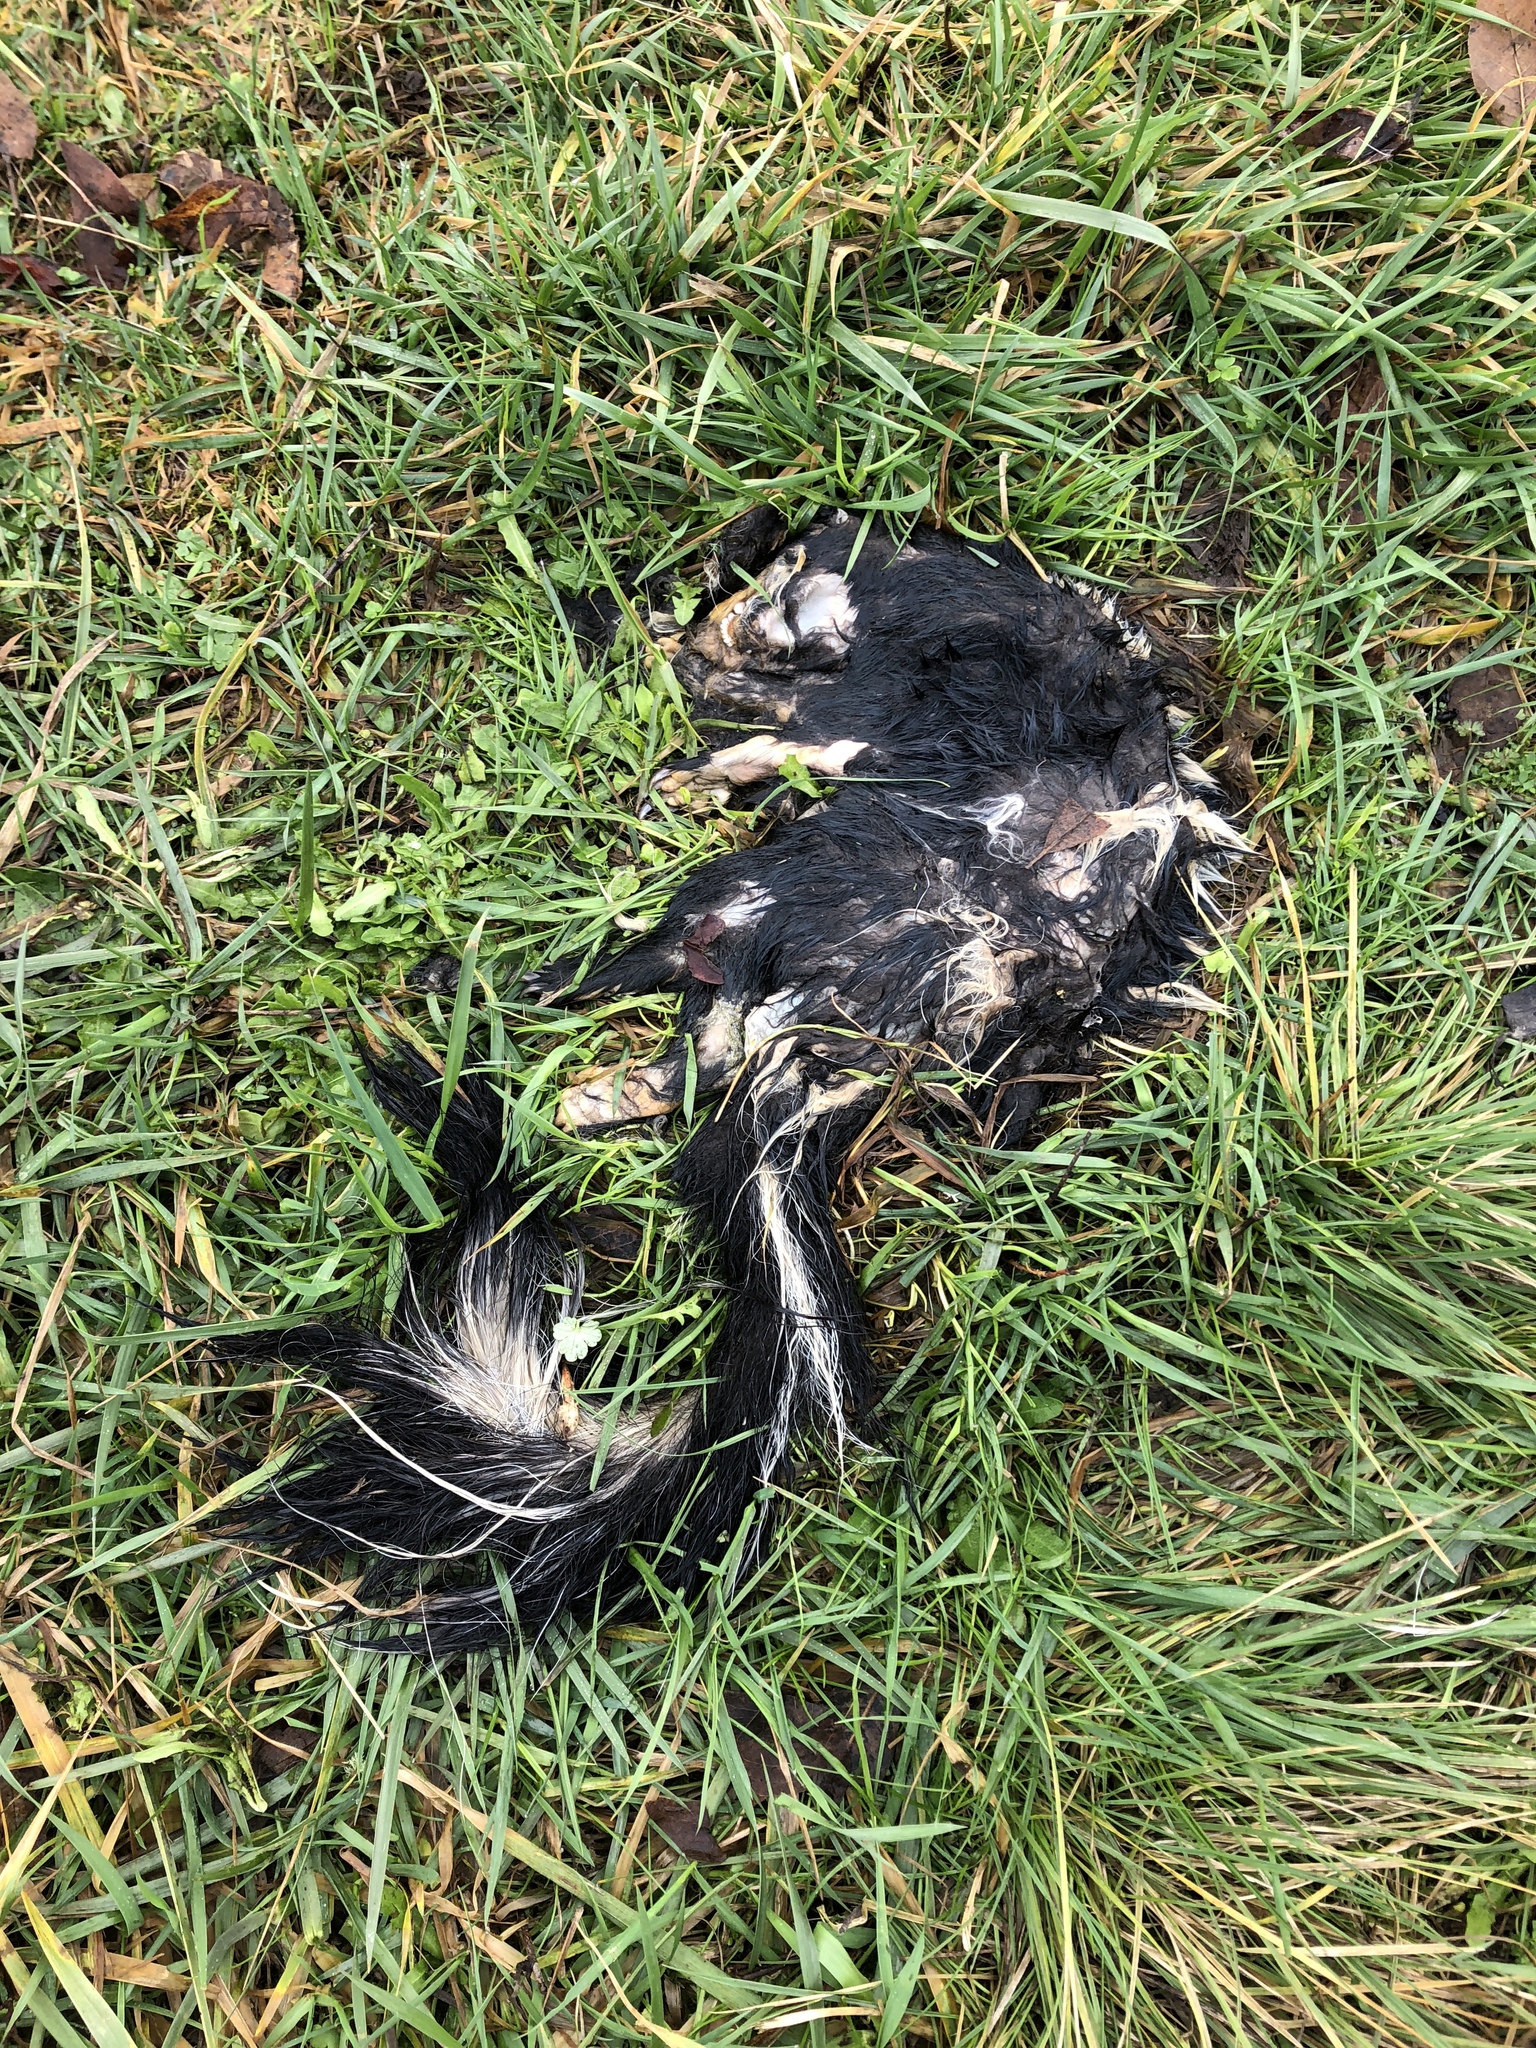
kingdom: Animalia
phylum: Chordata
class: Mammalia
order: Carnivora
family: Mephitidae
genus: Mephitis
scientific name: Mephitis mephitis
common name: Striped skunk
